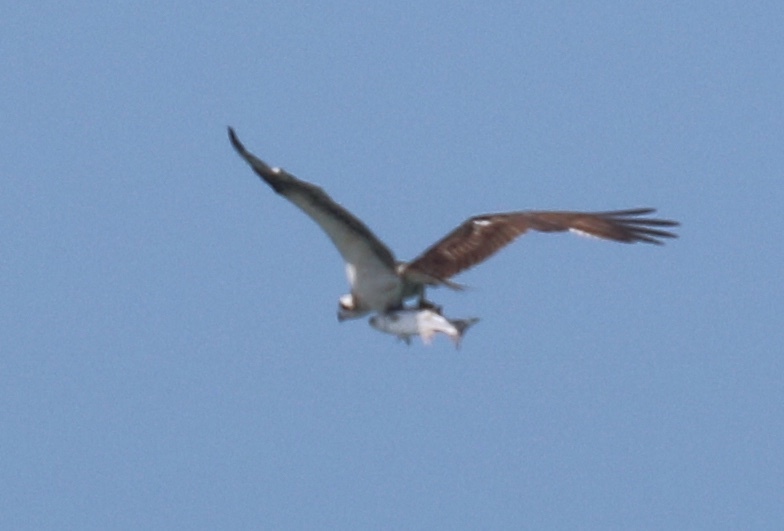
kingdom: Animalia
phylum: Chordata
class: Aves
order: Accipitriformes
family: Pandionidae
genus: Pandion
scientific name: Pandion haliaetus
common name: Osprey
